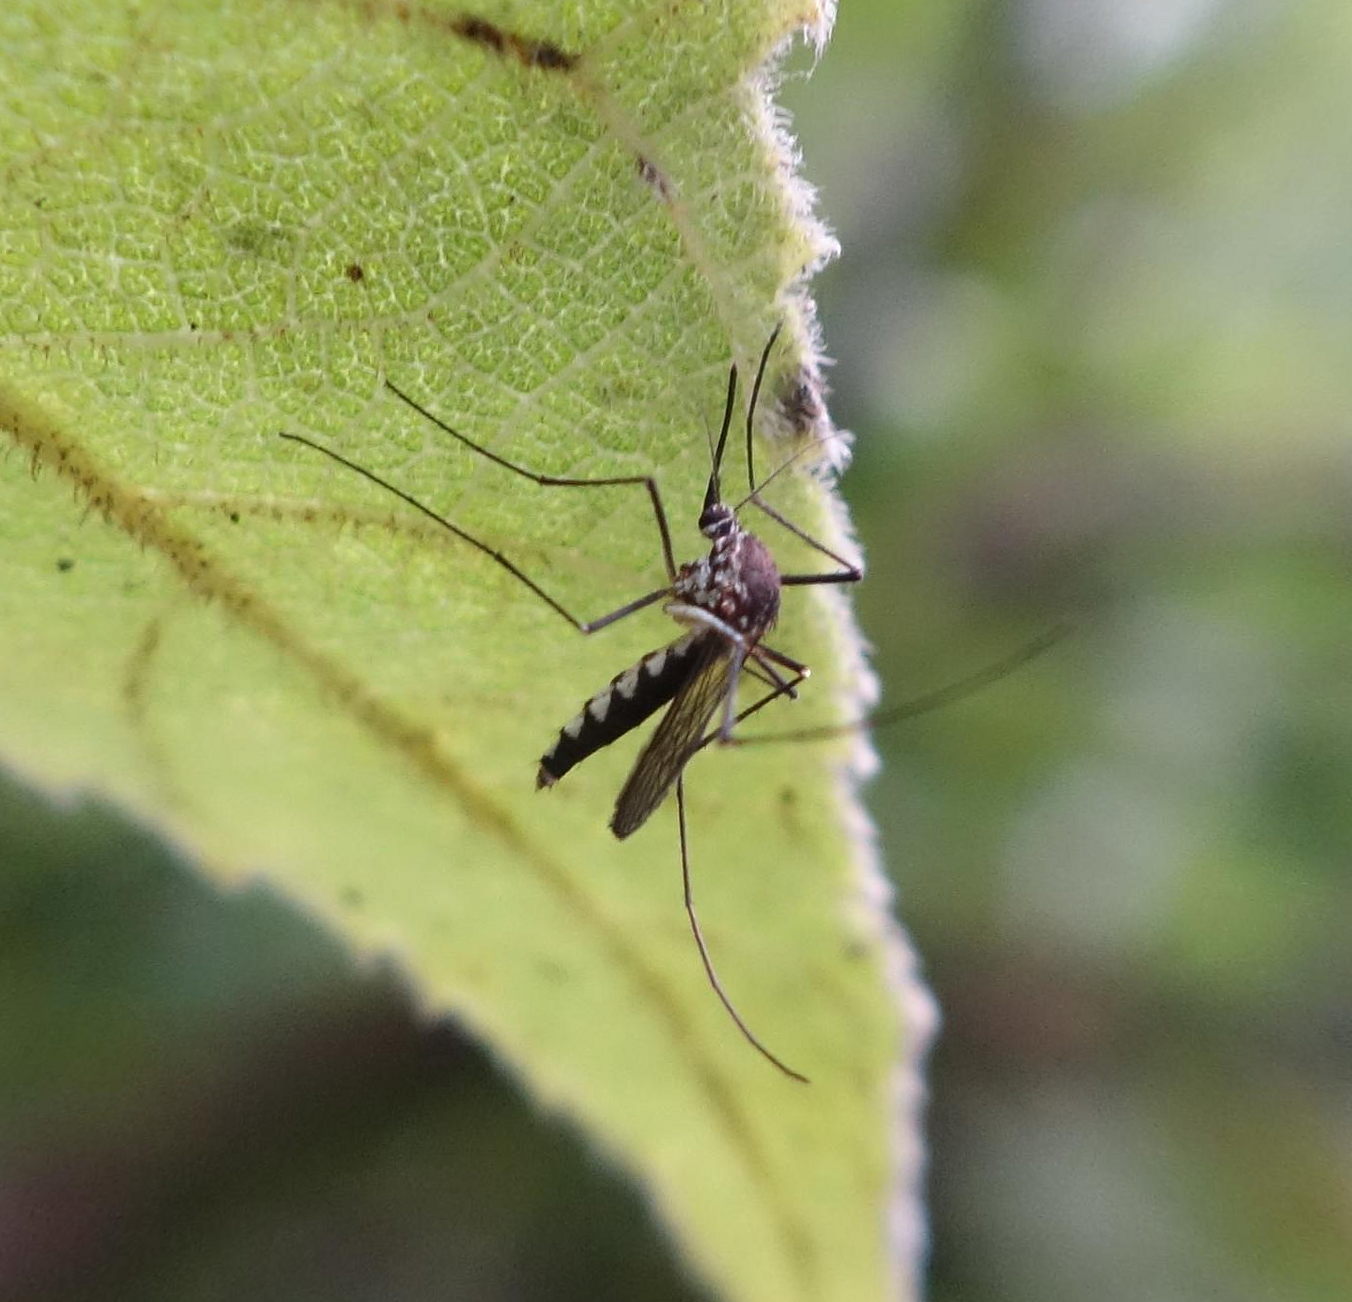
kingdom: Animalia
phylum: Arthropoda
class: Insecta
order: Diptera
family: Culicidae
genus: Armigeres
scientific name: Armigeres subalbatus
